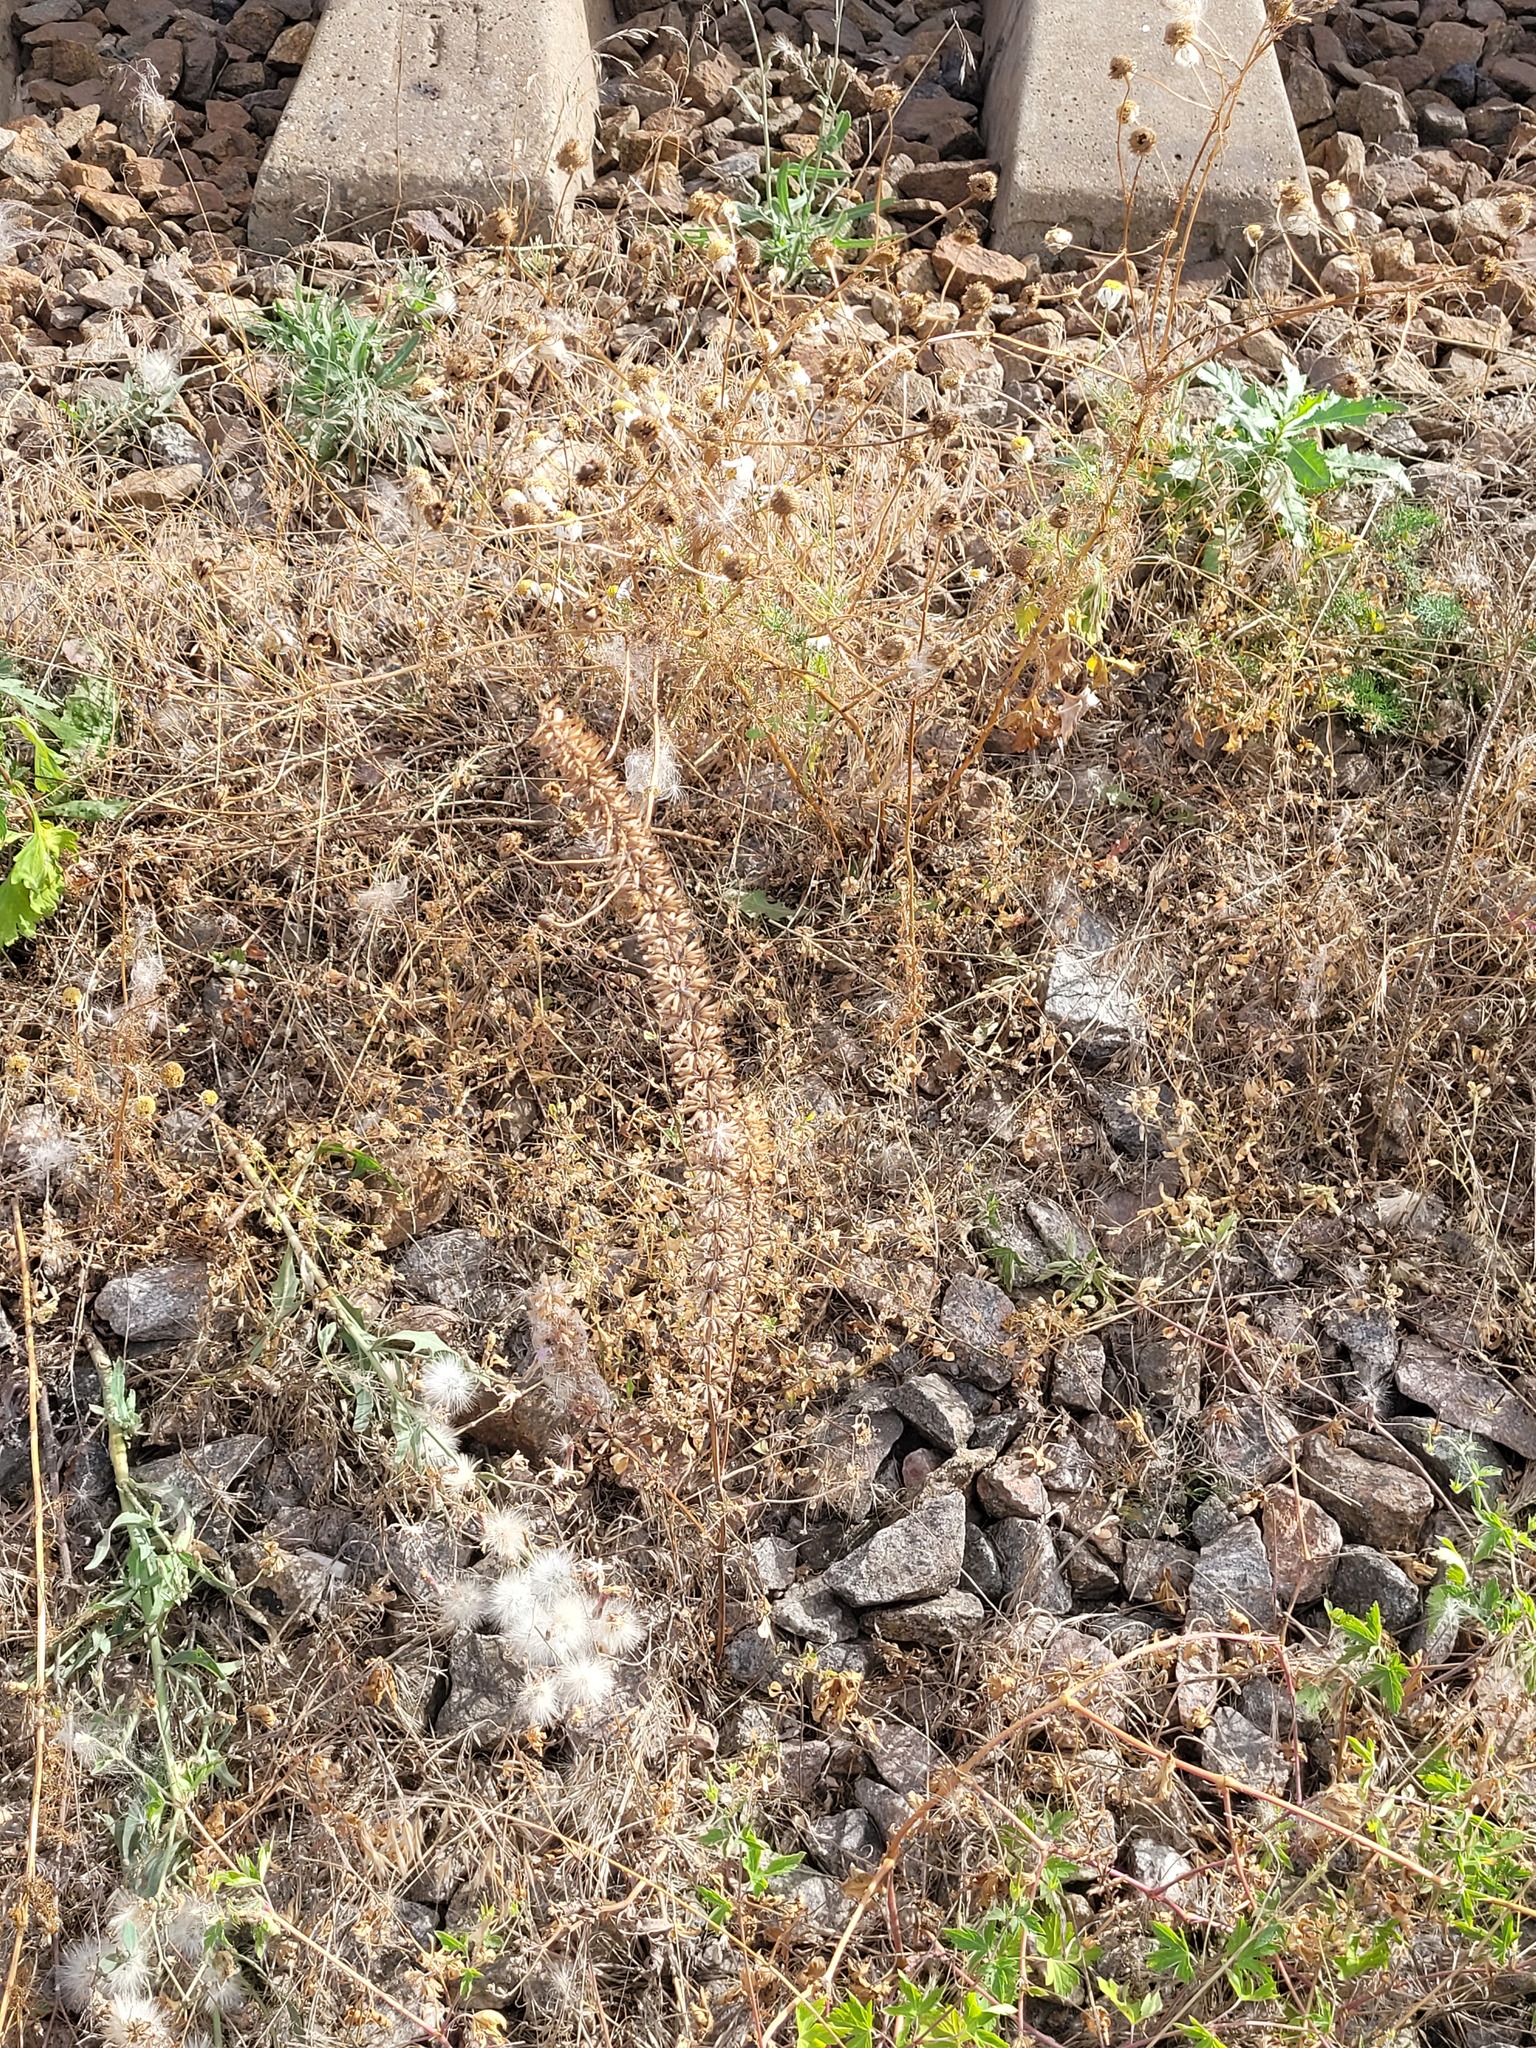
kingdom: Plantae
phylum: Tracheophyta
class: Magnoliopsida
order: Lamiales
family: Lamiaceae
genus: Dracocephalum
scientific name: Dracocephalum thymiflorum
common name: Thymeleaf dragonhead
